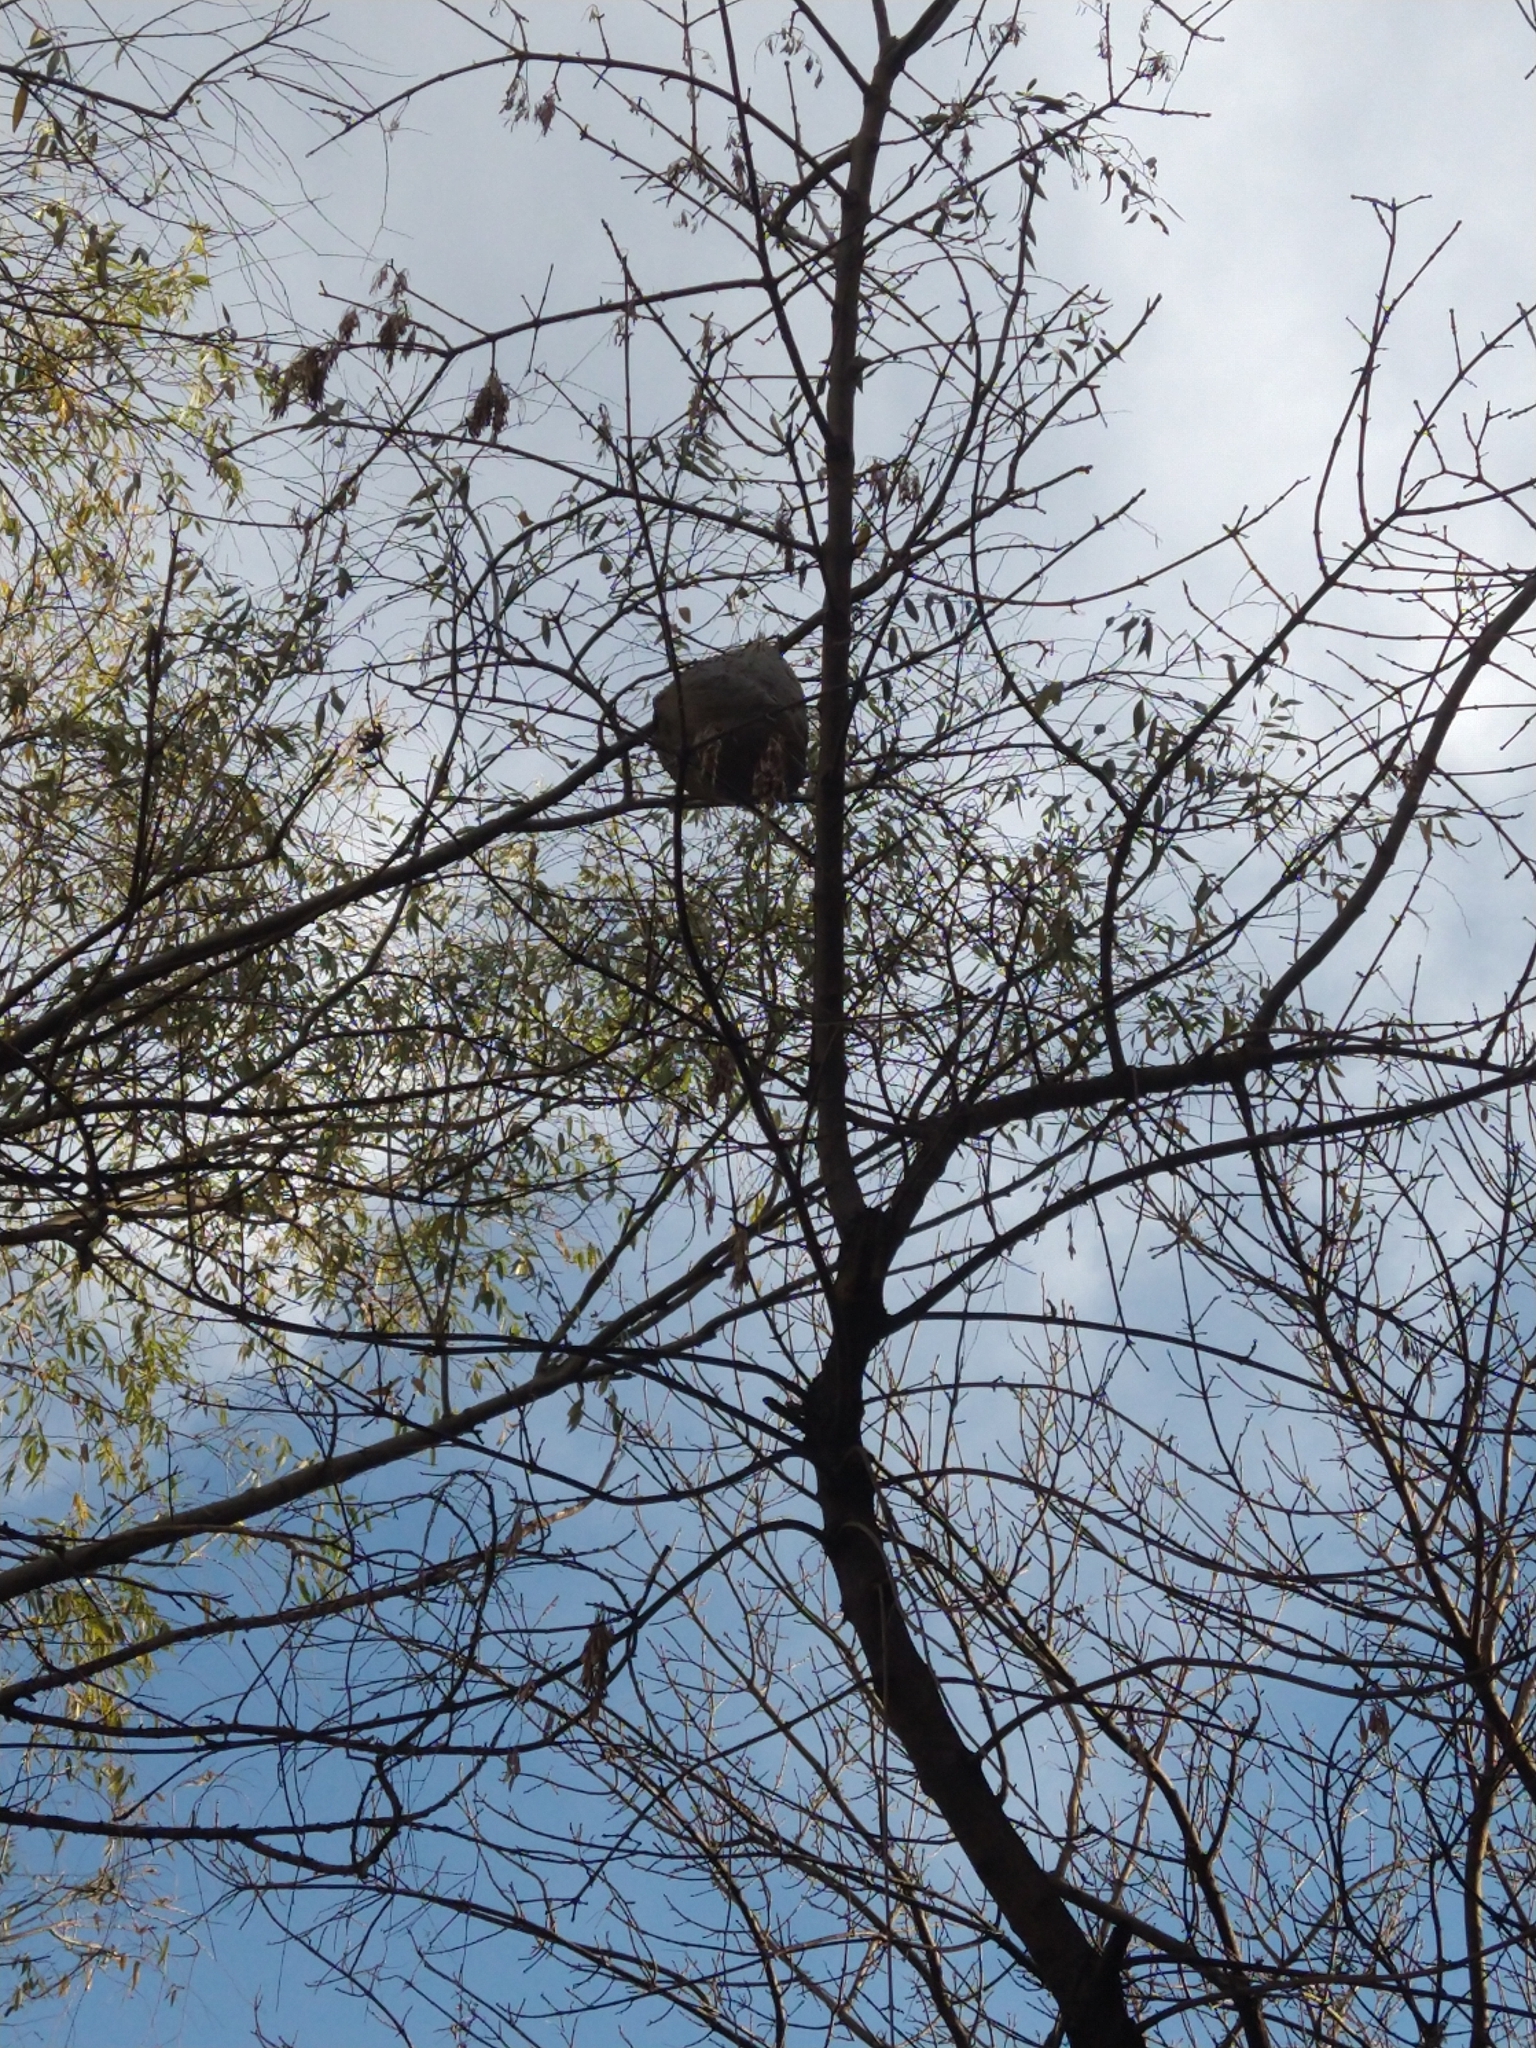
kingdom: Animalia
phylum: Arthropoda
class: Insecta
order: Hymenoptera
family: Eumenidae
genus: Polybia
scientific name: Polybia scutellaris
